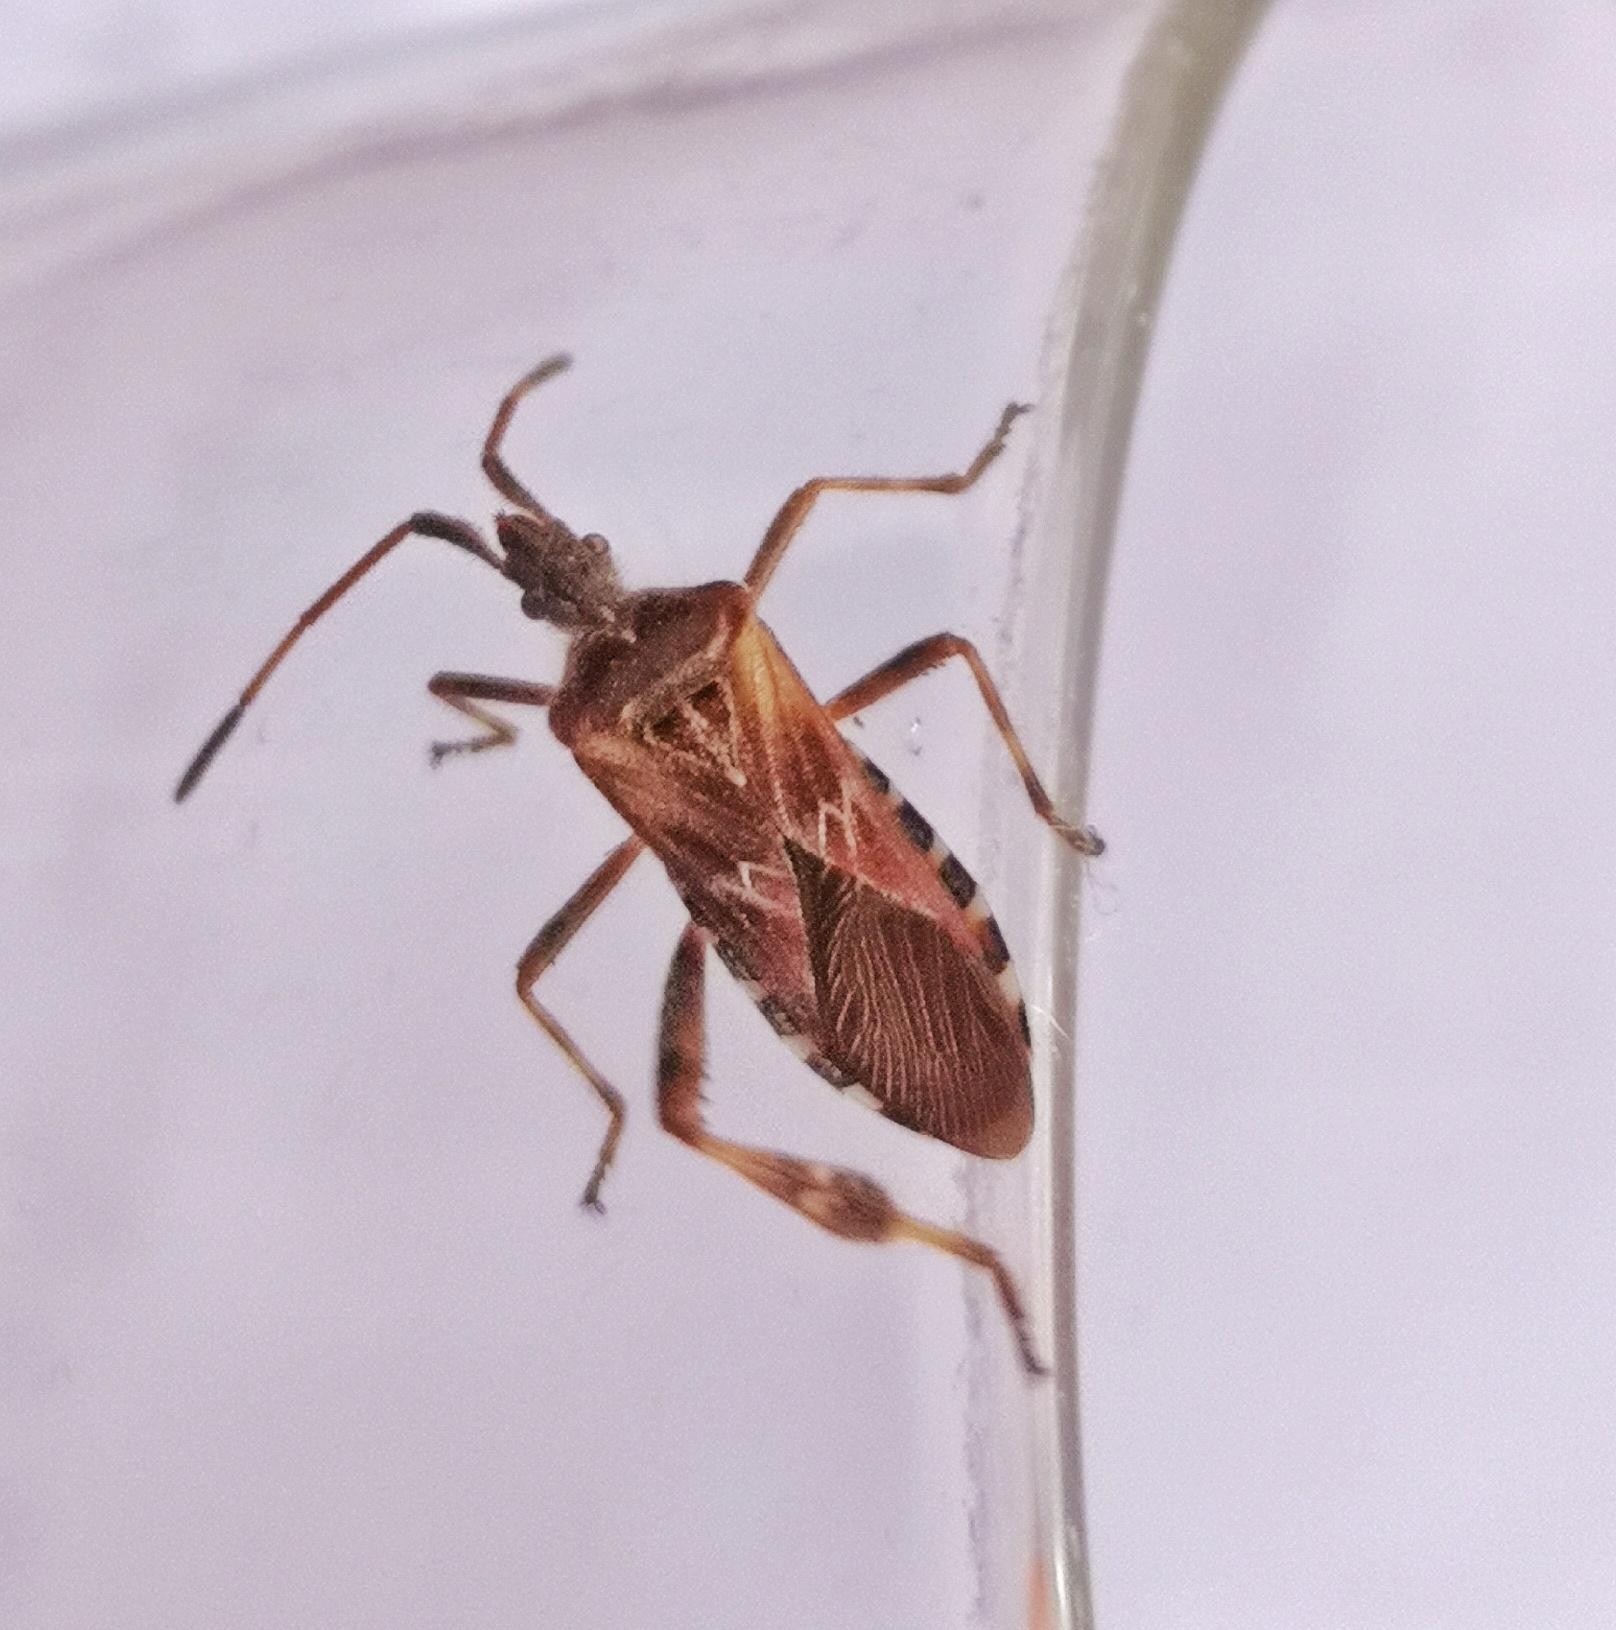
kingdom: Animalia
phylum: Arthropoda
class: Insecta
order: Hemiptera
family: Coreidae
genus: Leptoglossus
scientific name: Leptoglossus occidentalis
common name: Western conifer-seed bug
